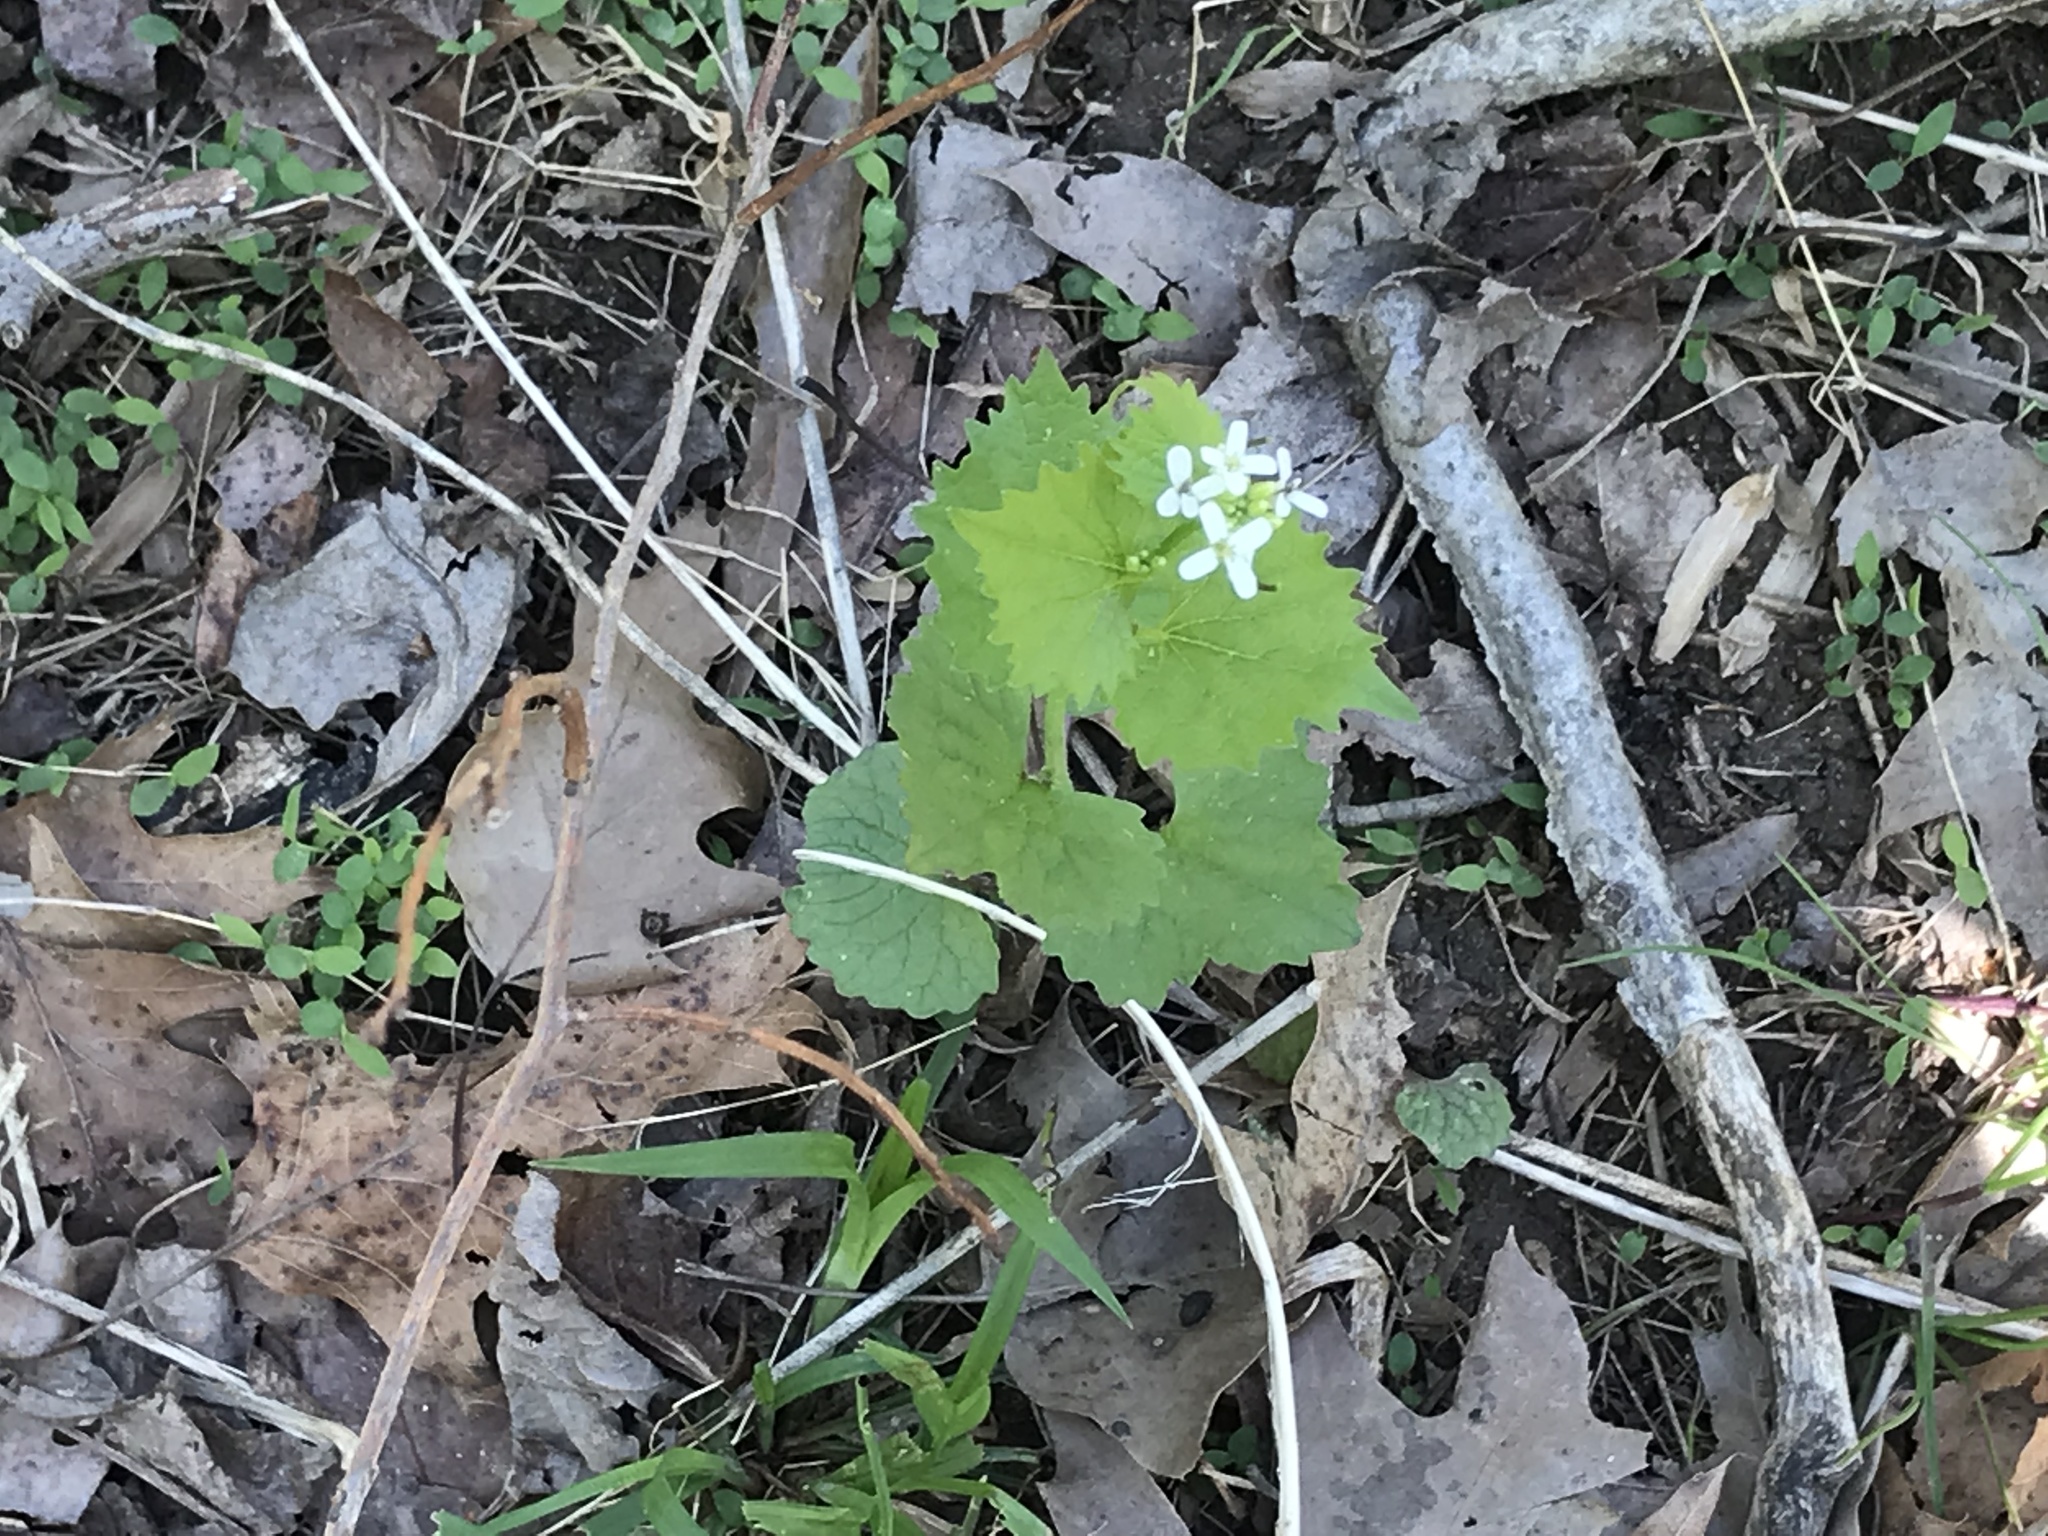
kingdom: Plantae
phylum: Tracheophyta
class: Magnoliopsida
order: Brassicales
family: Brassicaceae
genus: Alliaria
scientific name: Alliaria petiolata
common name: Garlic mustard
